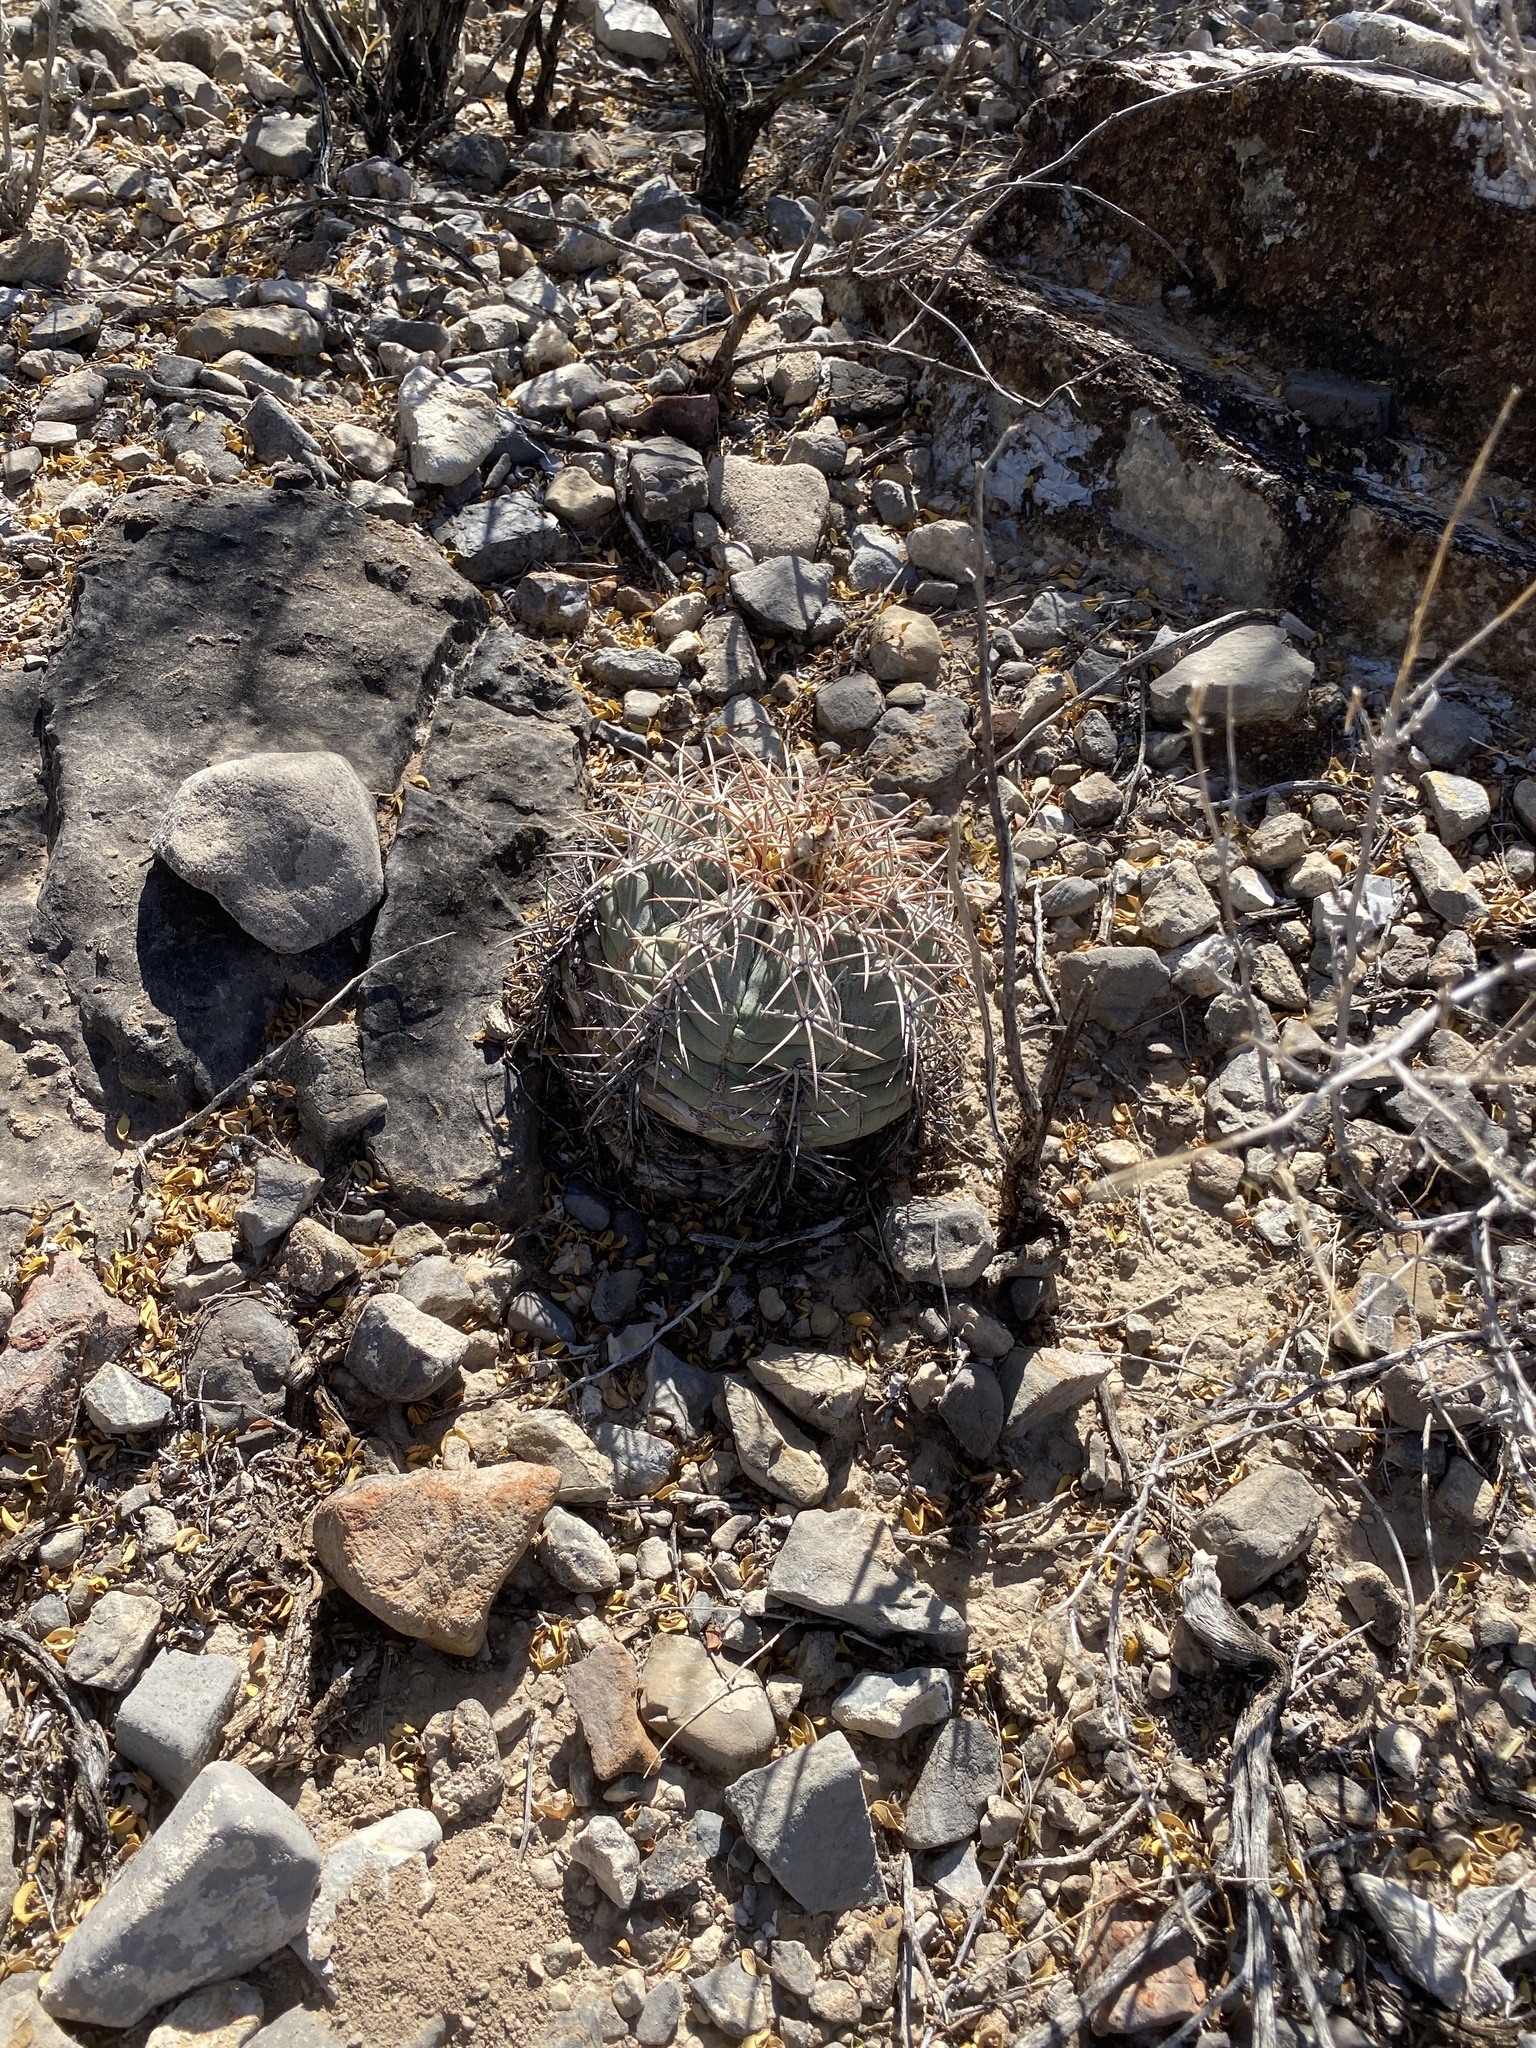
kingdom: Plantae
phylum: Tracheophyta
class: Magnoliopsida
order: Caryophyllales
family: Cactaceae
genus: Echinocactus
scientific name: Echinocactus horizonthalonius
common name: Devilshead
